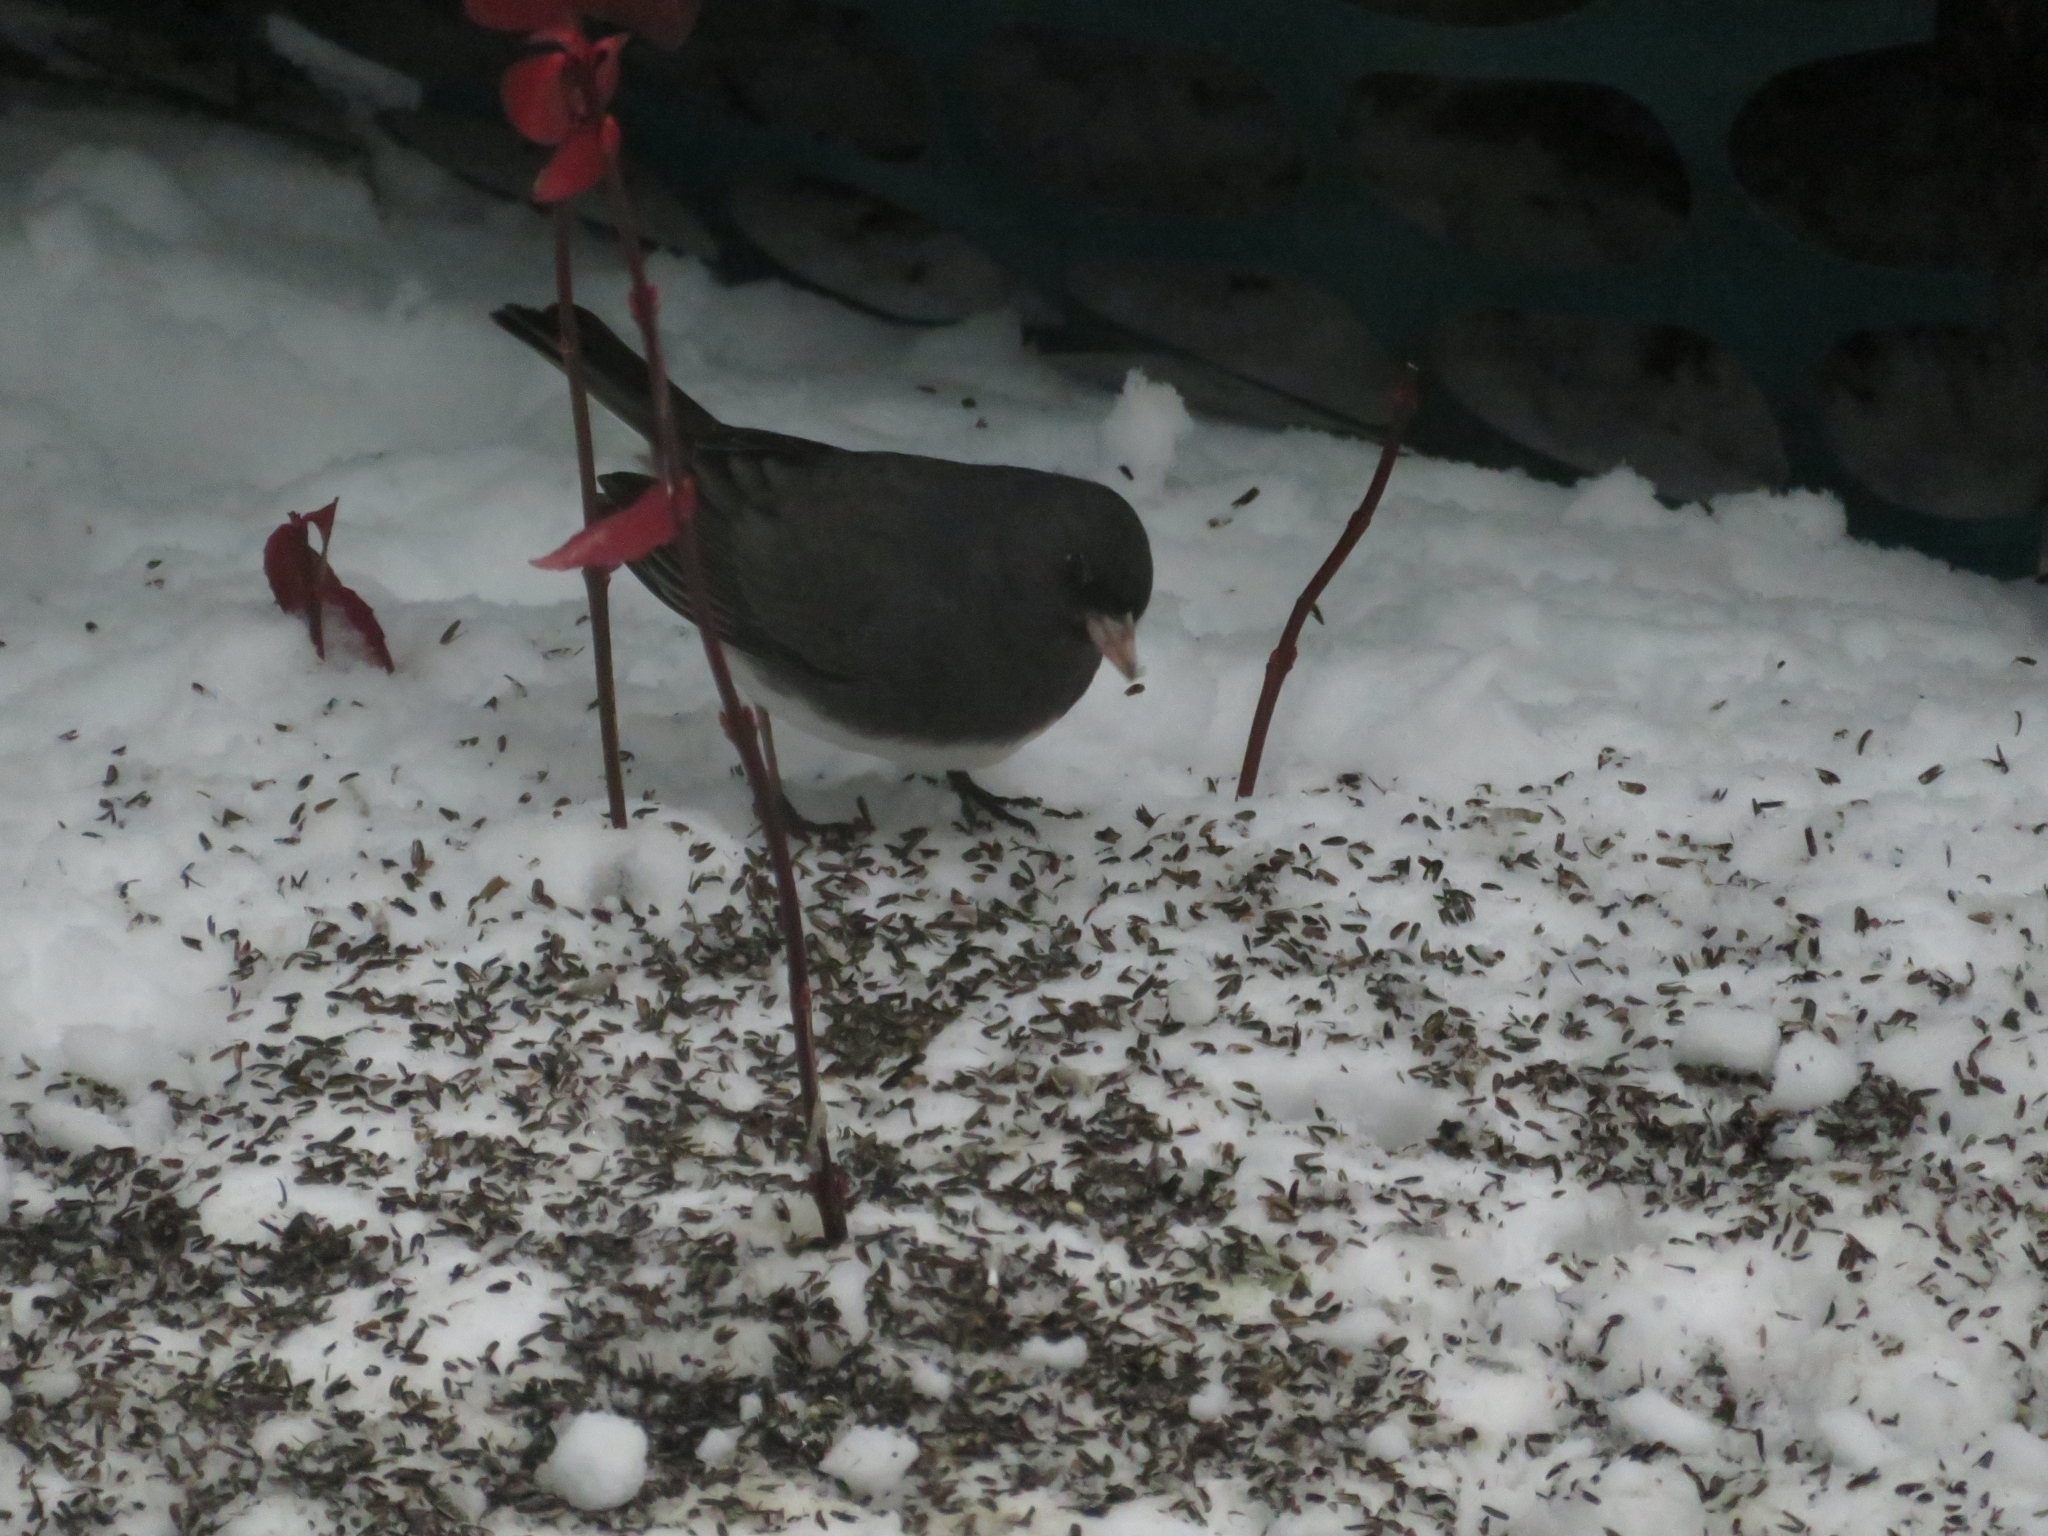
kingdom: Animalia
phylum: Chordata
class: Aves
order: Passeriformes
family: Passerellidae
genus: Junco
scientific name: Junco hyemalis
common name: Dark-eyed junco
